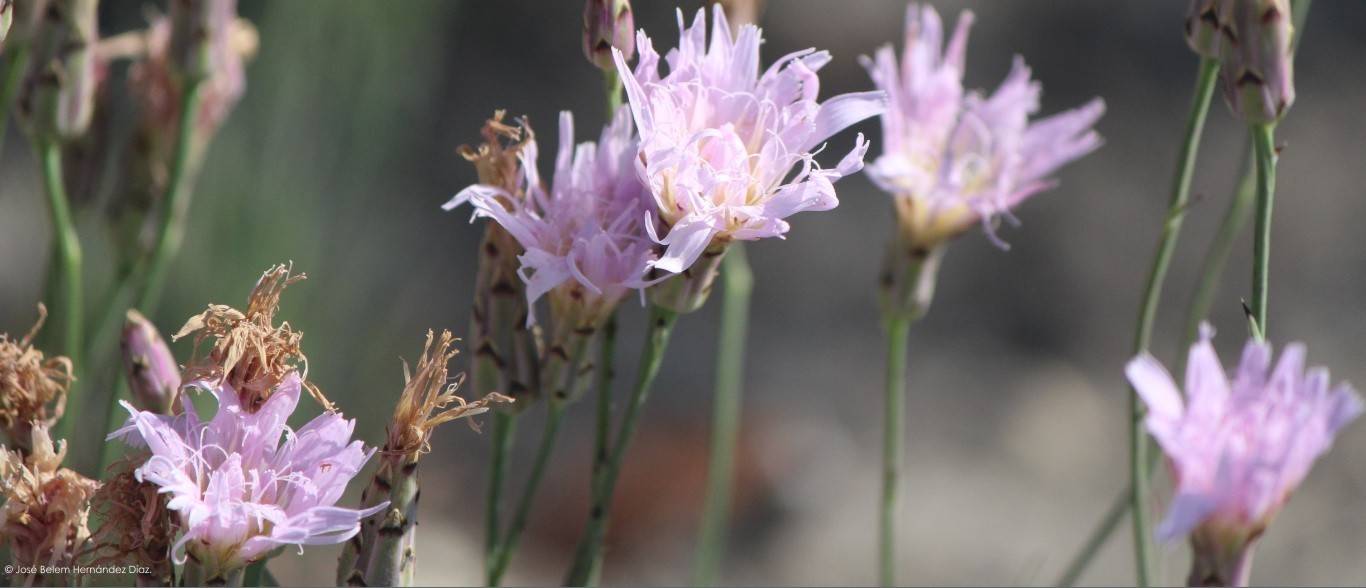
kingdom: Plantae
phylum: Tracheophyta
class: Magnoliopsida
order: Asterales
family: Asteraceae
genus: Pinaropappus
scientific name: Pinaropappus roseus
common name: Rock-lettuce
